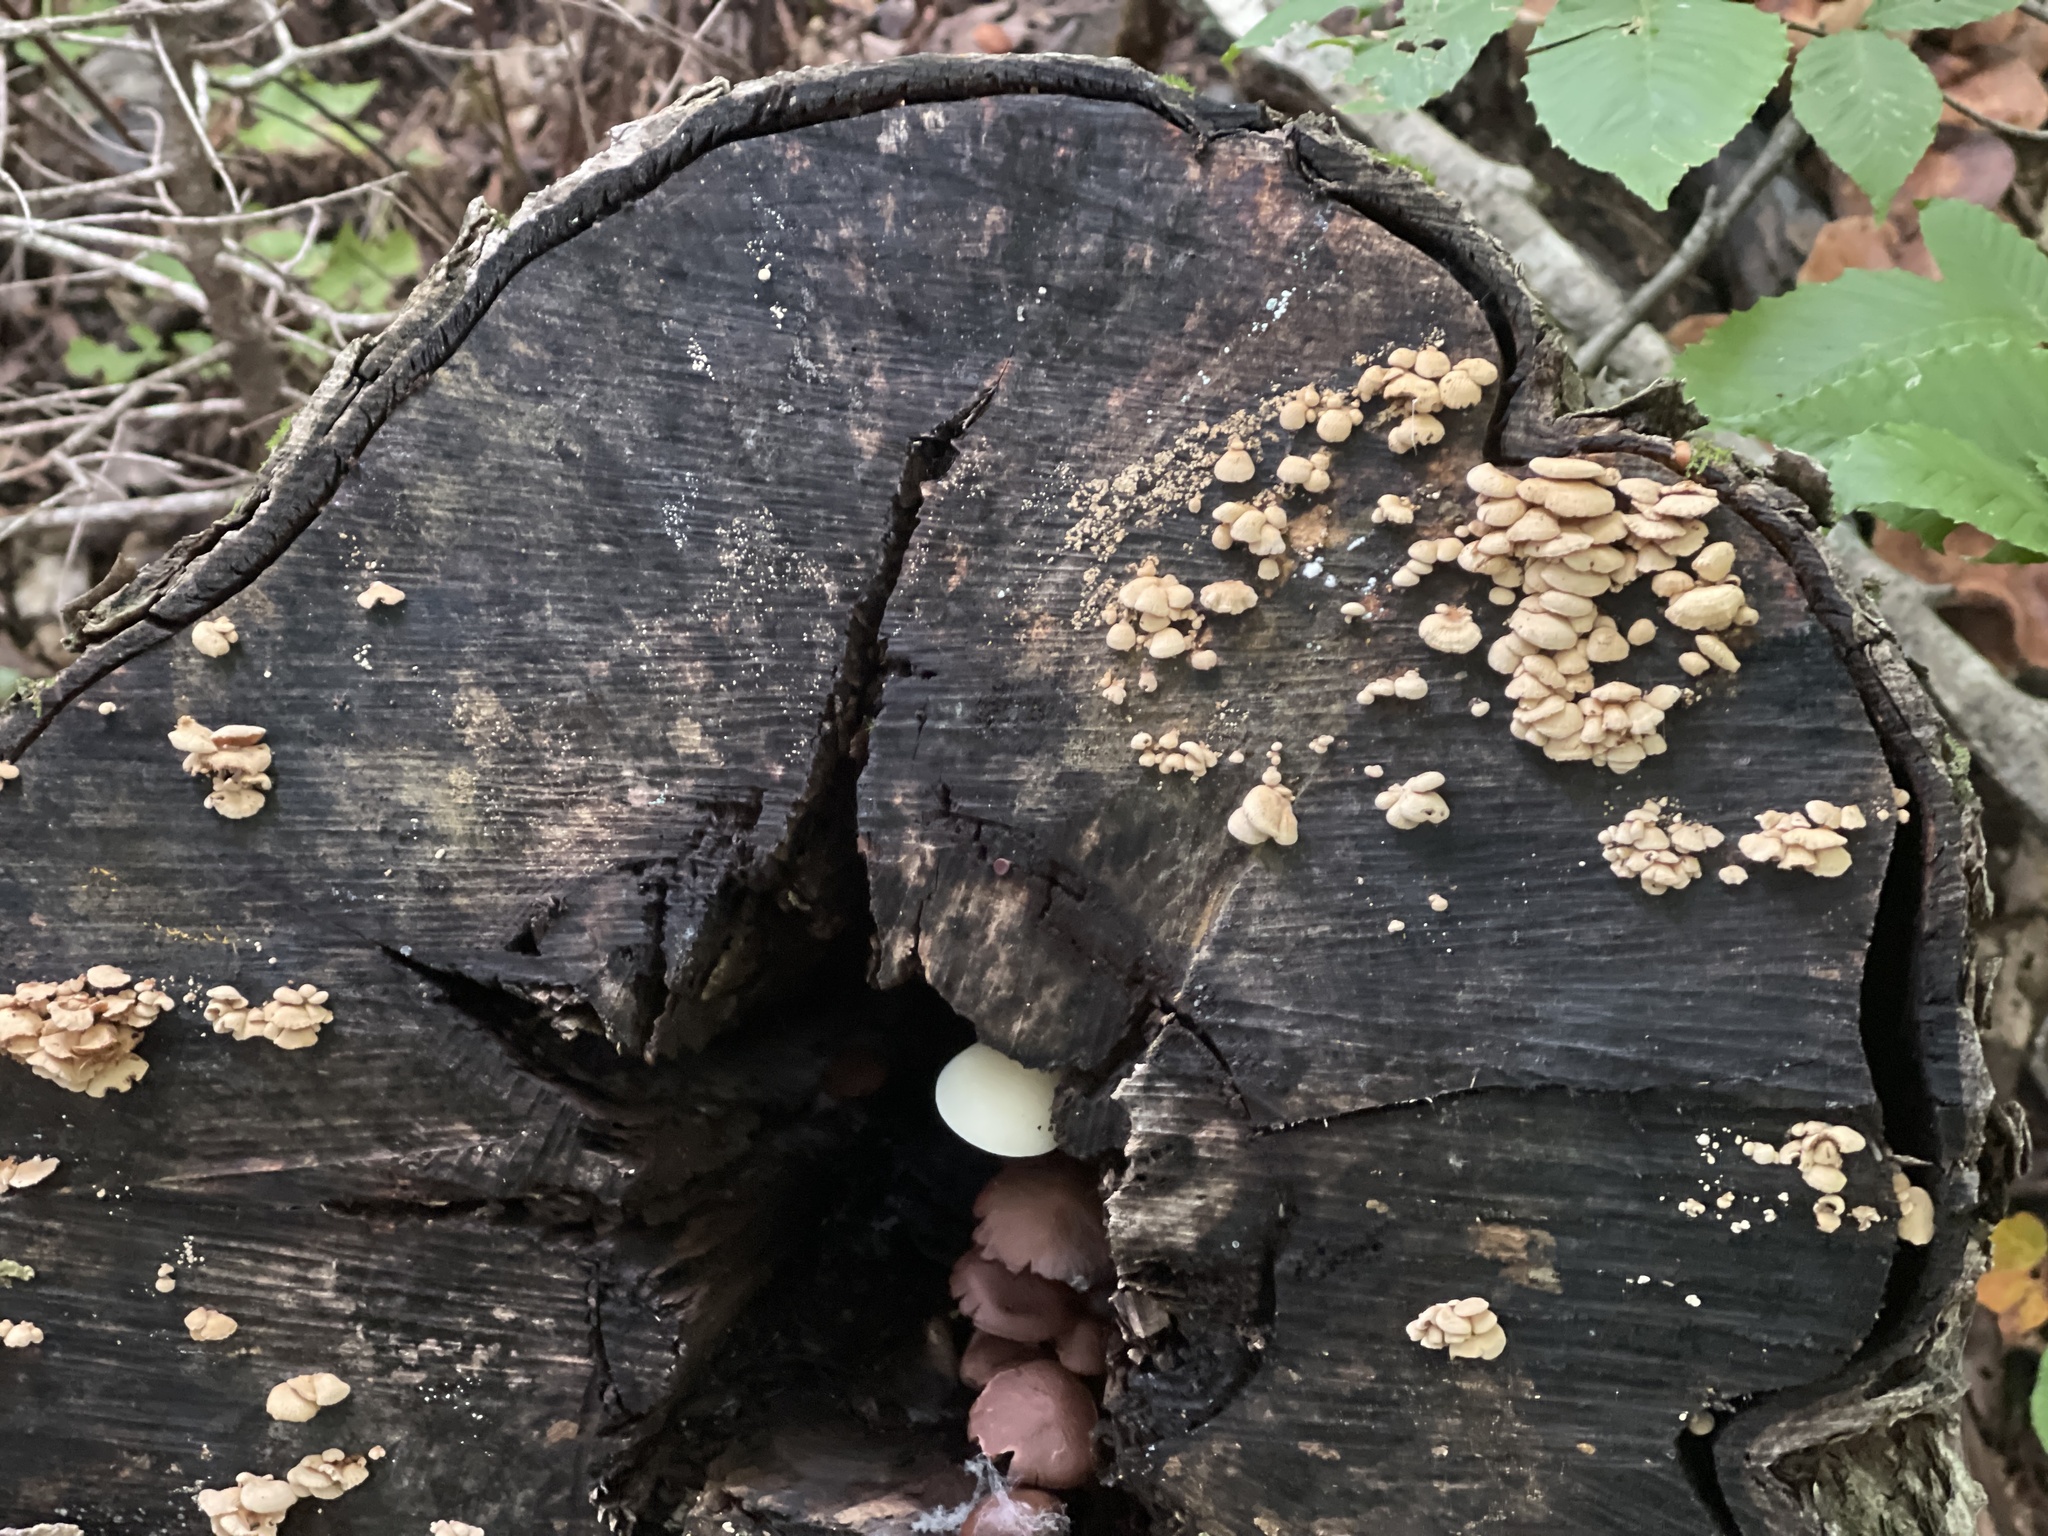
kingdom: Fungi
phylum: Basidiomycota
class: Agaricomycetes
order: Agaricales
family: Mycenaceae
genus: Panellus
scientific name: Panellus stipticus
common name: Bitter oysterling
